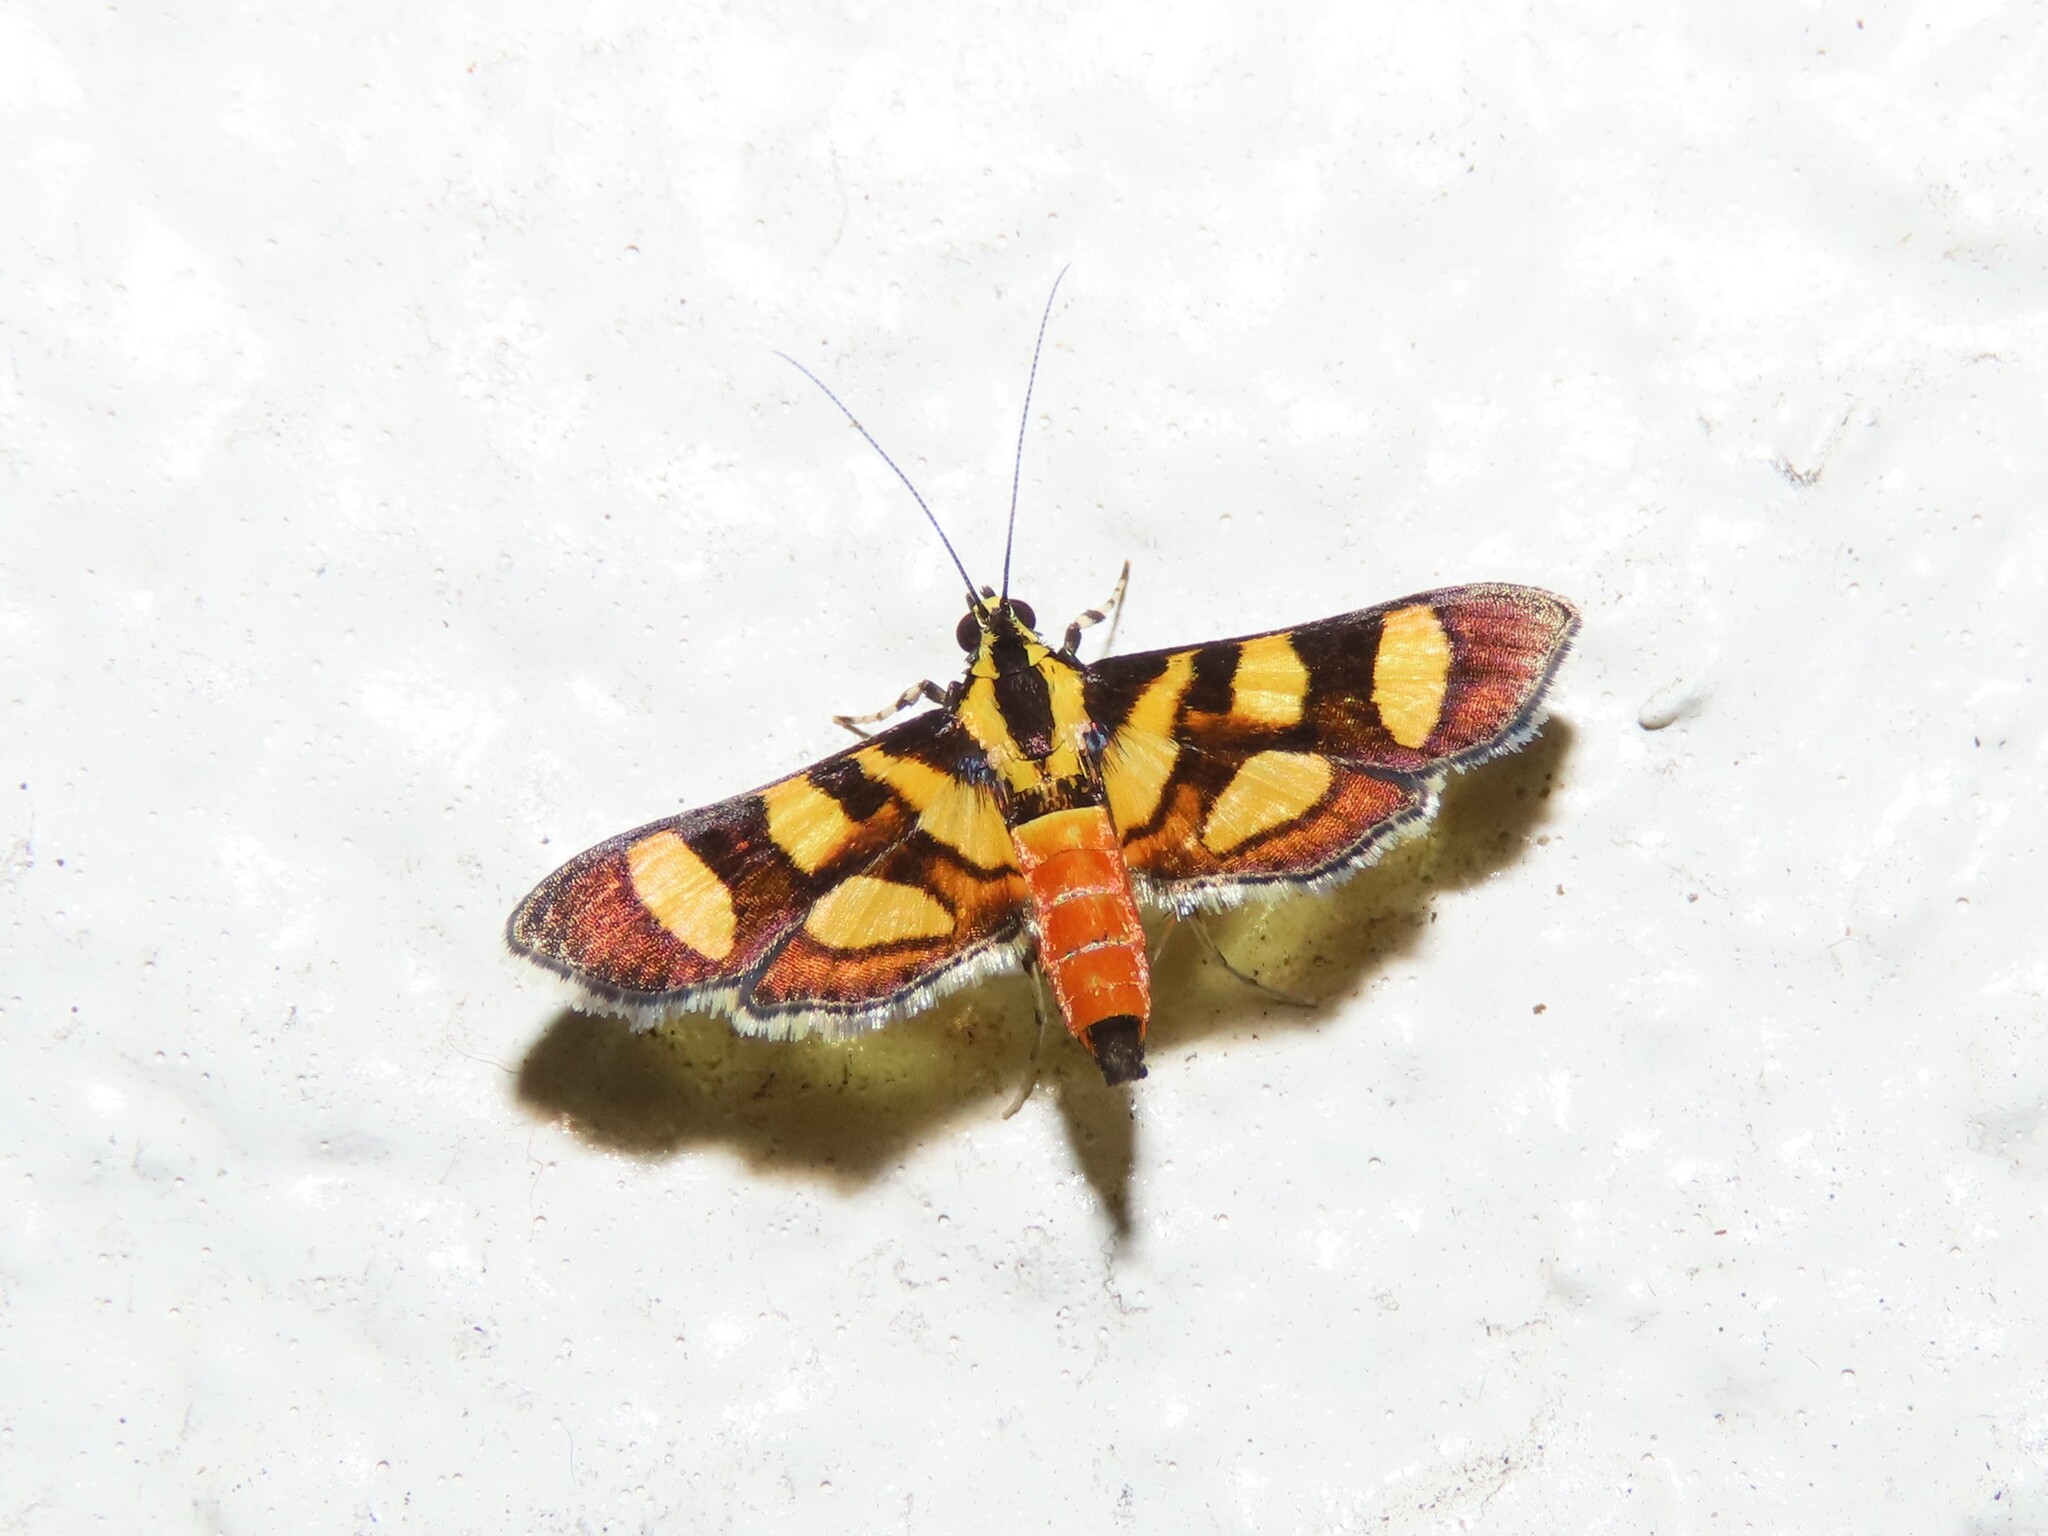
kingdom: Animalia
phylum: Arthropoda
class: Insecta
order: Lepidoptera
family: Crambidae
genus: Syngamia
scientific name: Syngamia florella
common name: Orange-spotted flower moth
